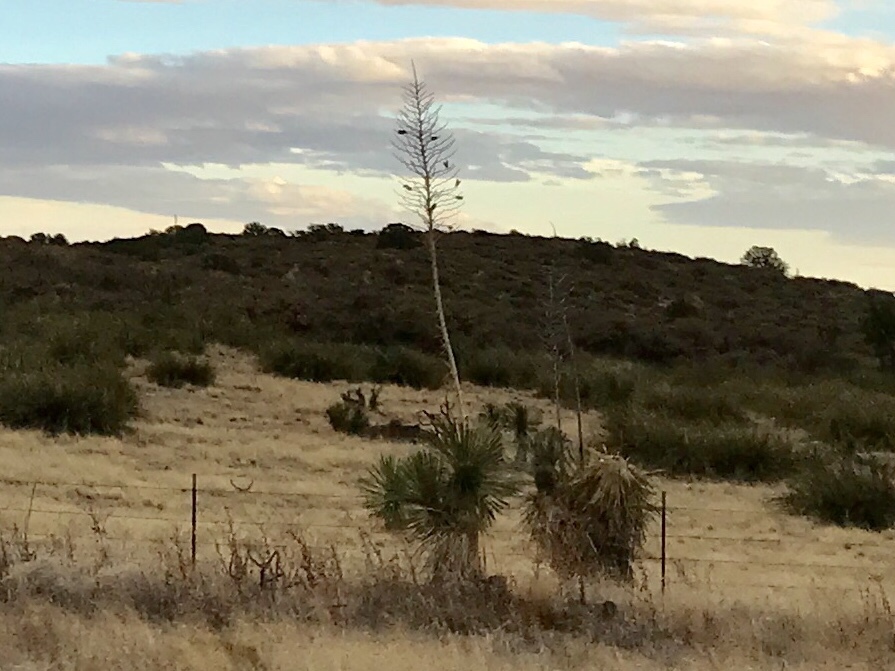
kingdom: Plantae
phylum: Tracheophyta
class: Liliopsida
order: Asparagales
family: Asparagaceae
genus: Yucca
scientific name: Yucca elata
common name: Palmella
